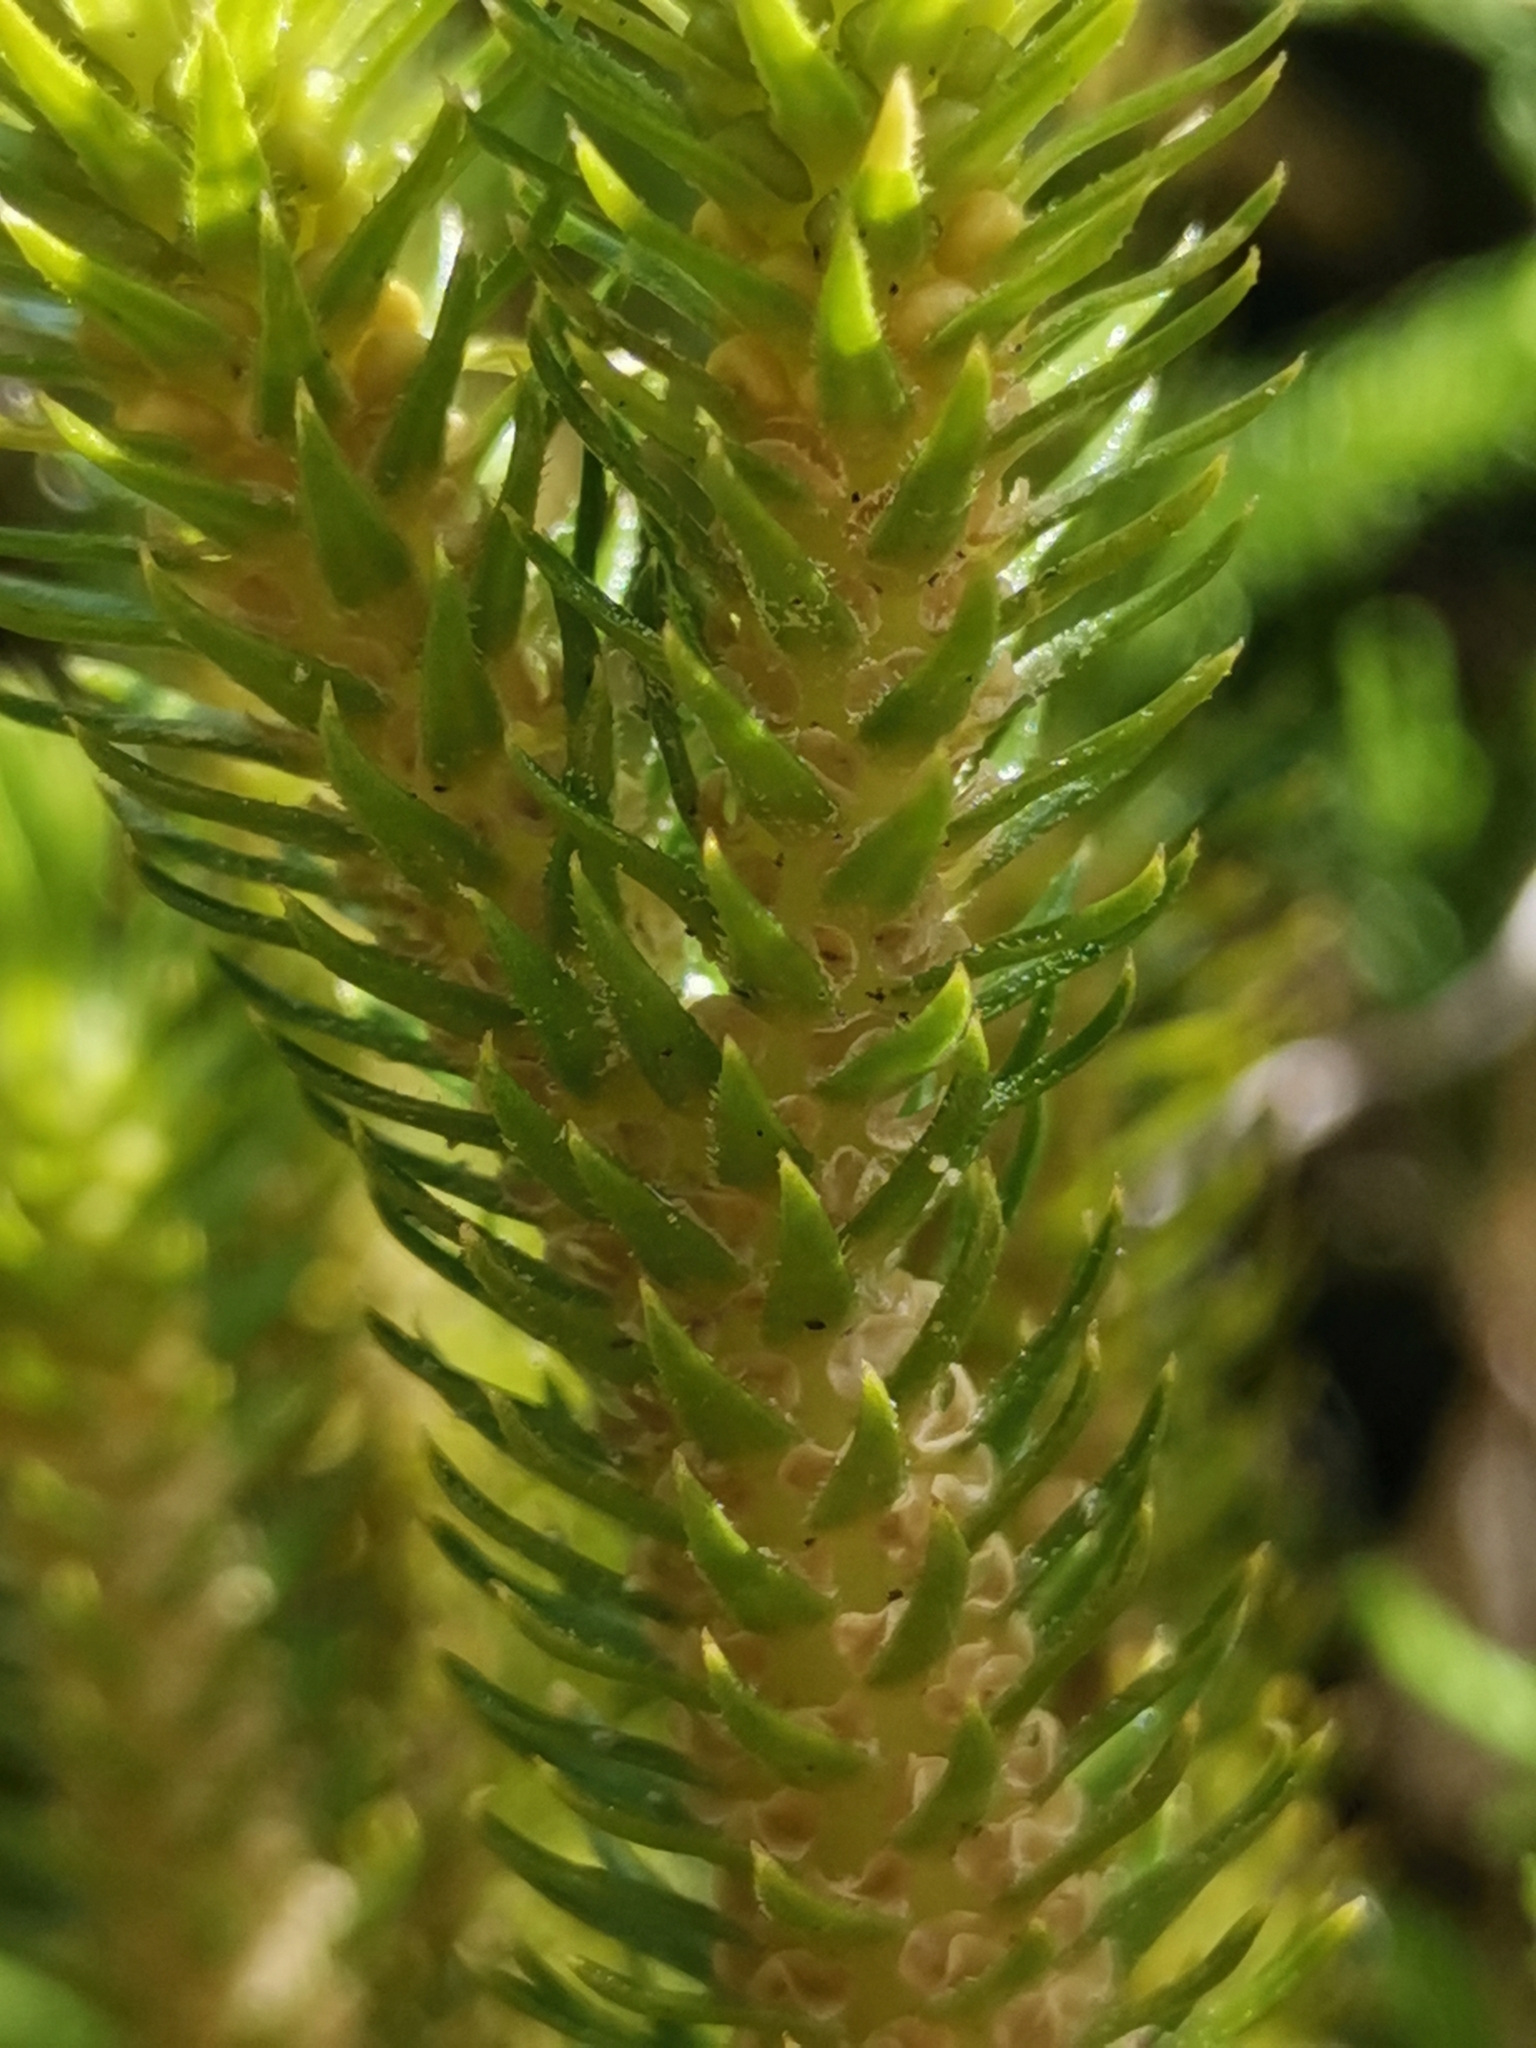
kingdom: Plantae
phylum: Tracheophyta
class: Lycopodiopsida
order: Lycopodiales
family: Lycopodiaceae
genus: Phlegmariurus
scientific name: Phlegmariurus dentatus
